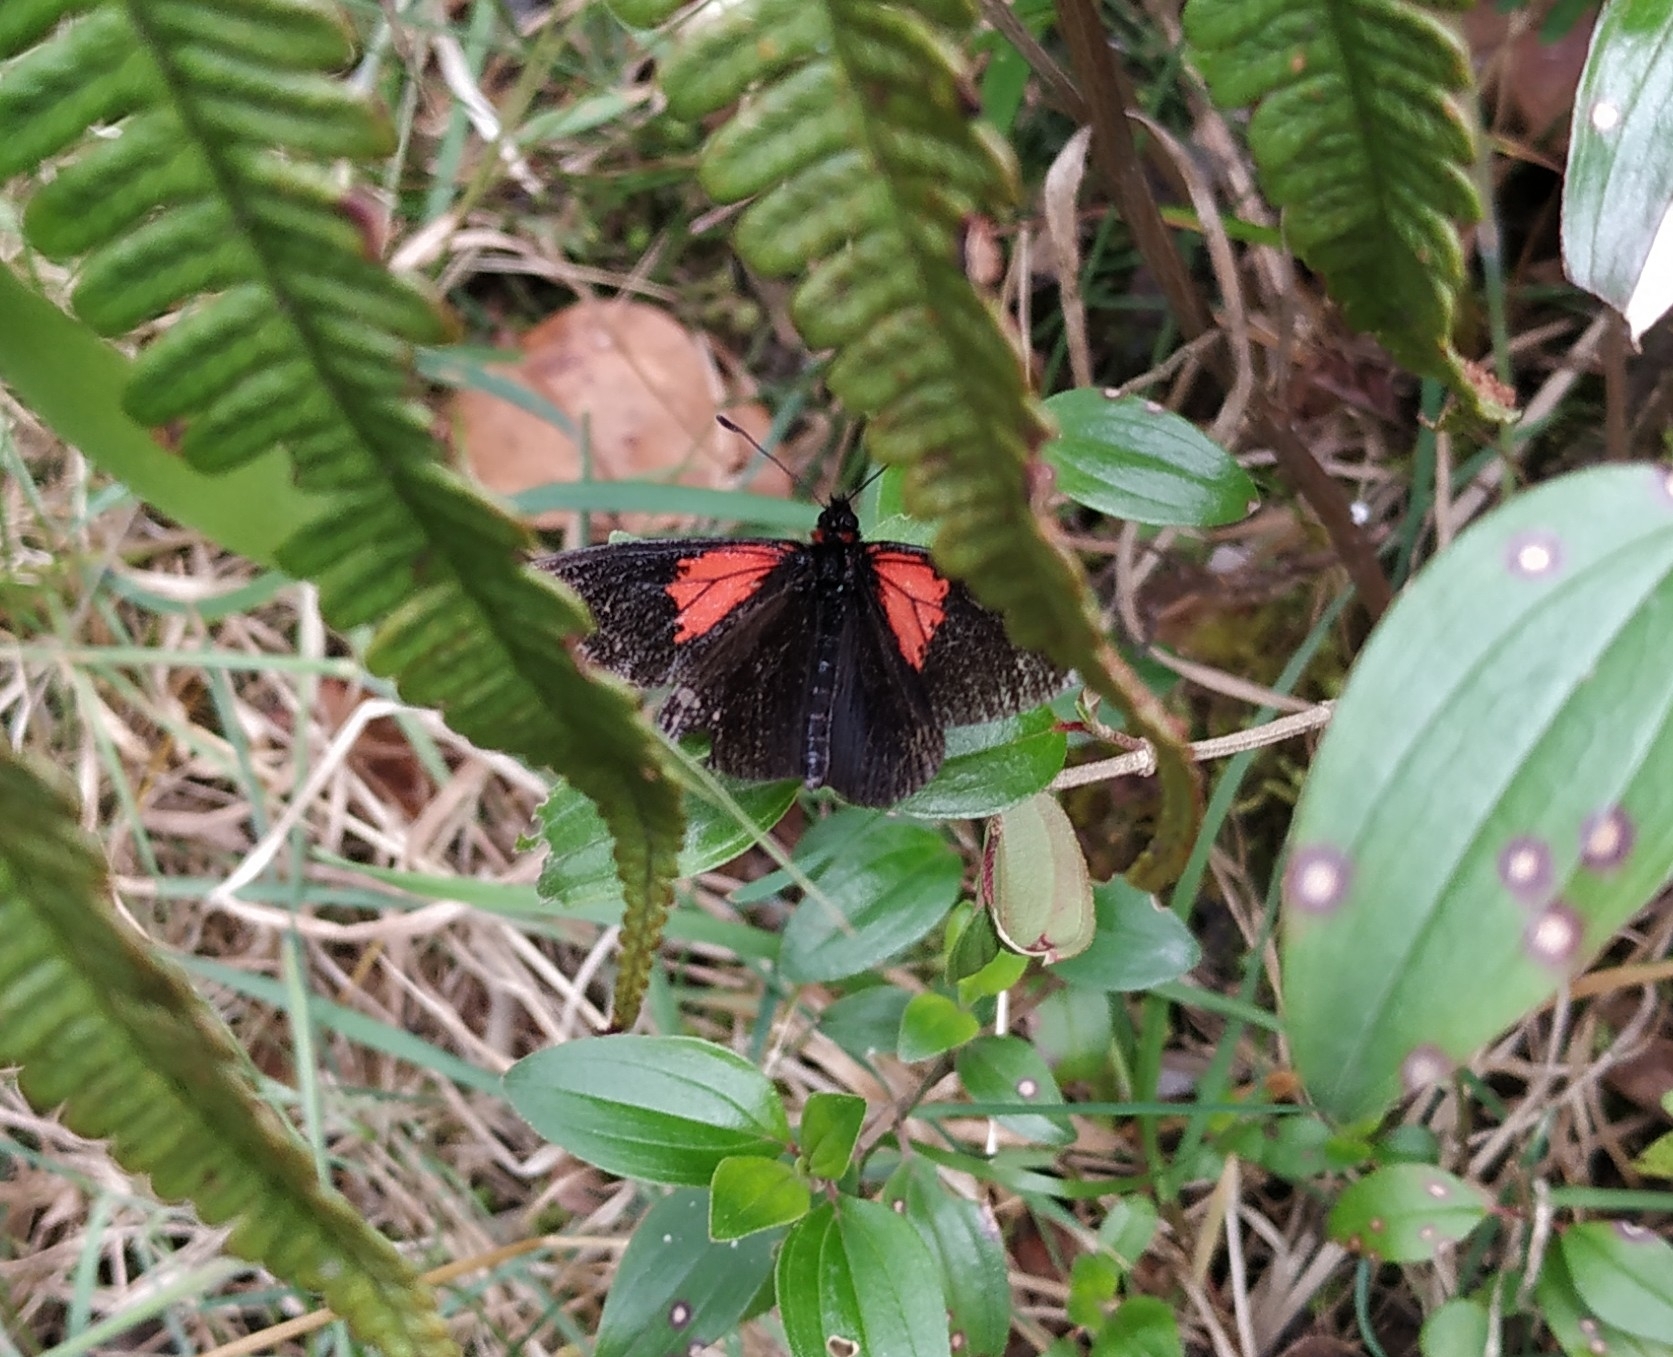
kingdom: Animalia
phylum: Arthropoda
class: Insecta
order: Lepidoptera
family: Nymphalidae
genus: Acraea
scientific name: Acraea Altinote trinacria
